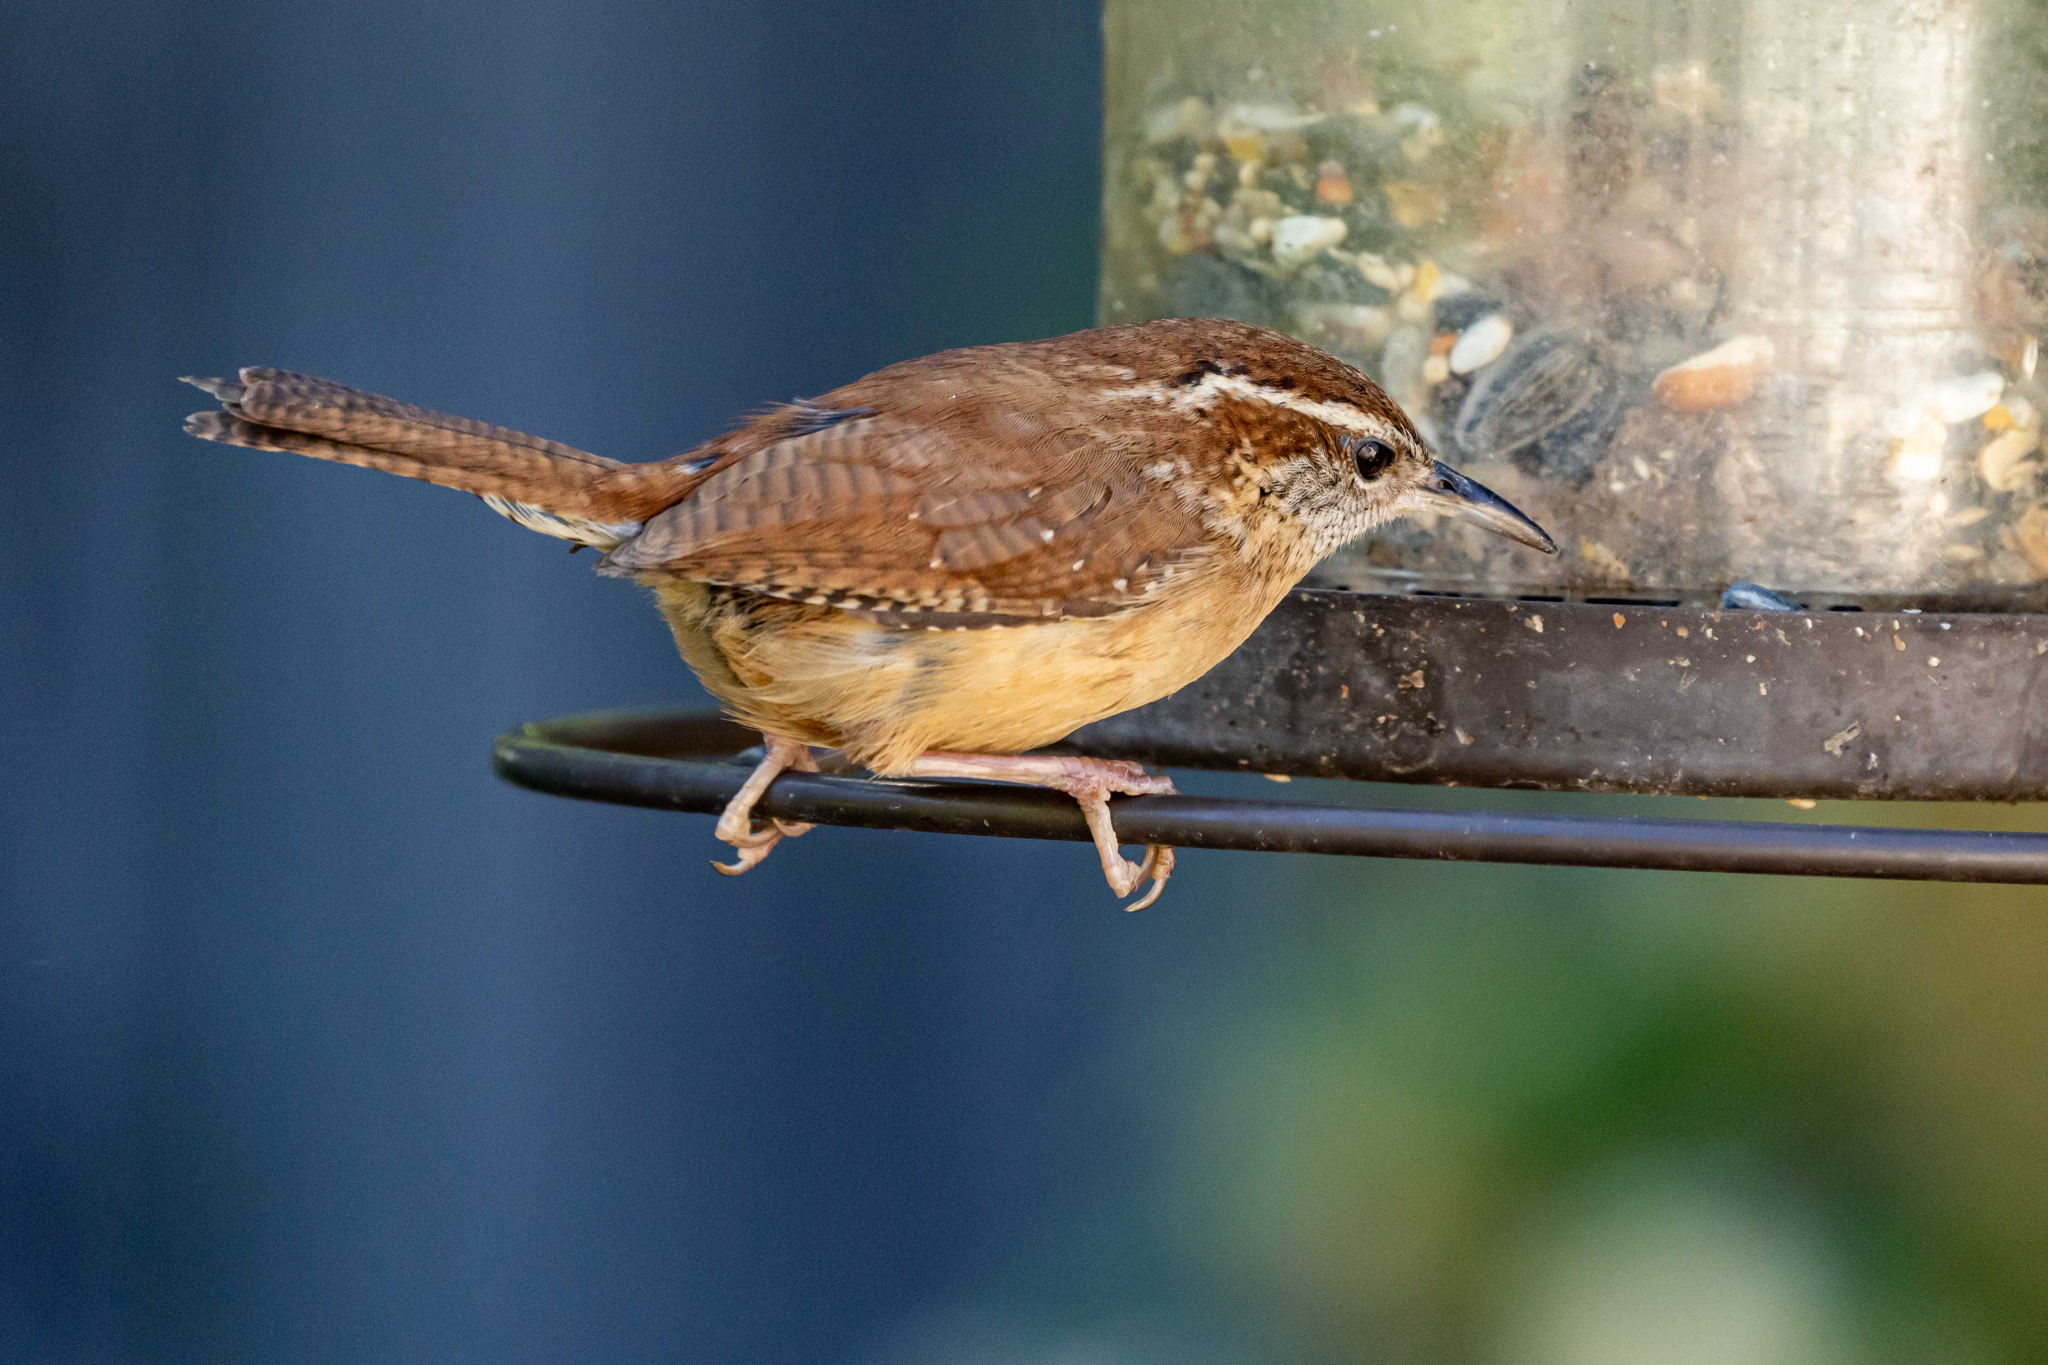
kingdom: Animalia
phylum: Chordata
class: Aves
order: Passeriformes
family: Troglodytidae
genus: Thryothorus
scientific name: Thryothorus ludovicianus
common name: Carolina wren
